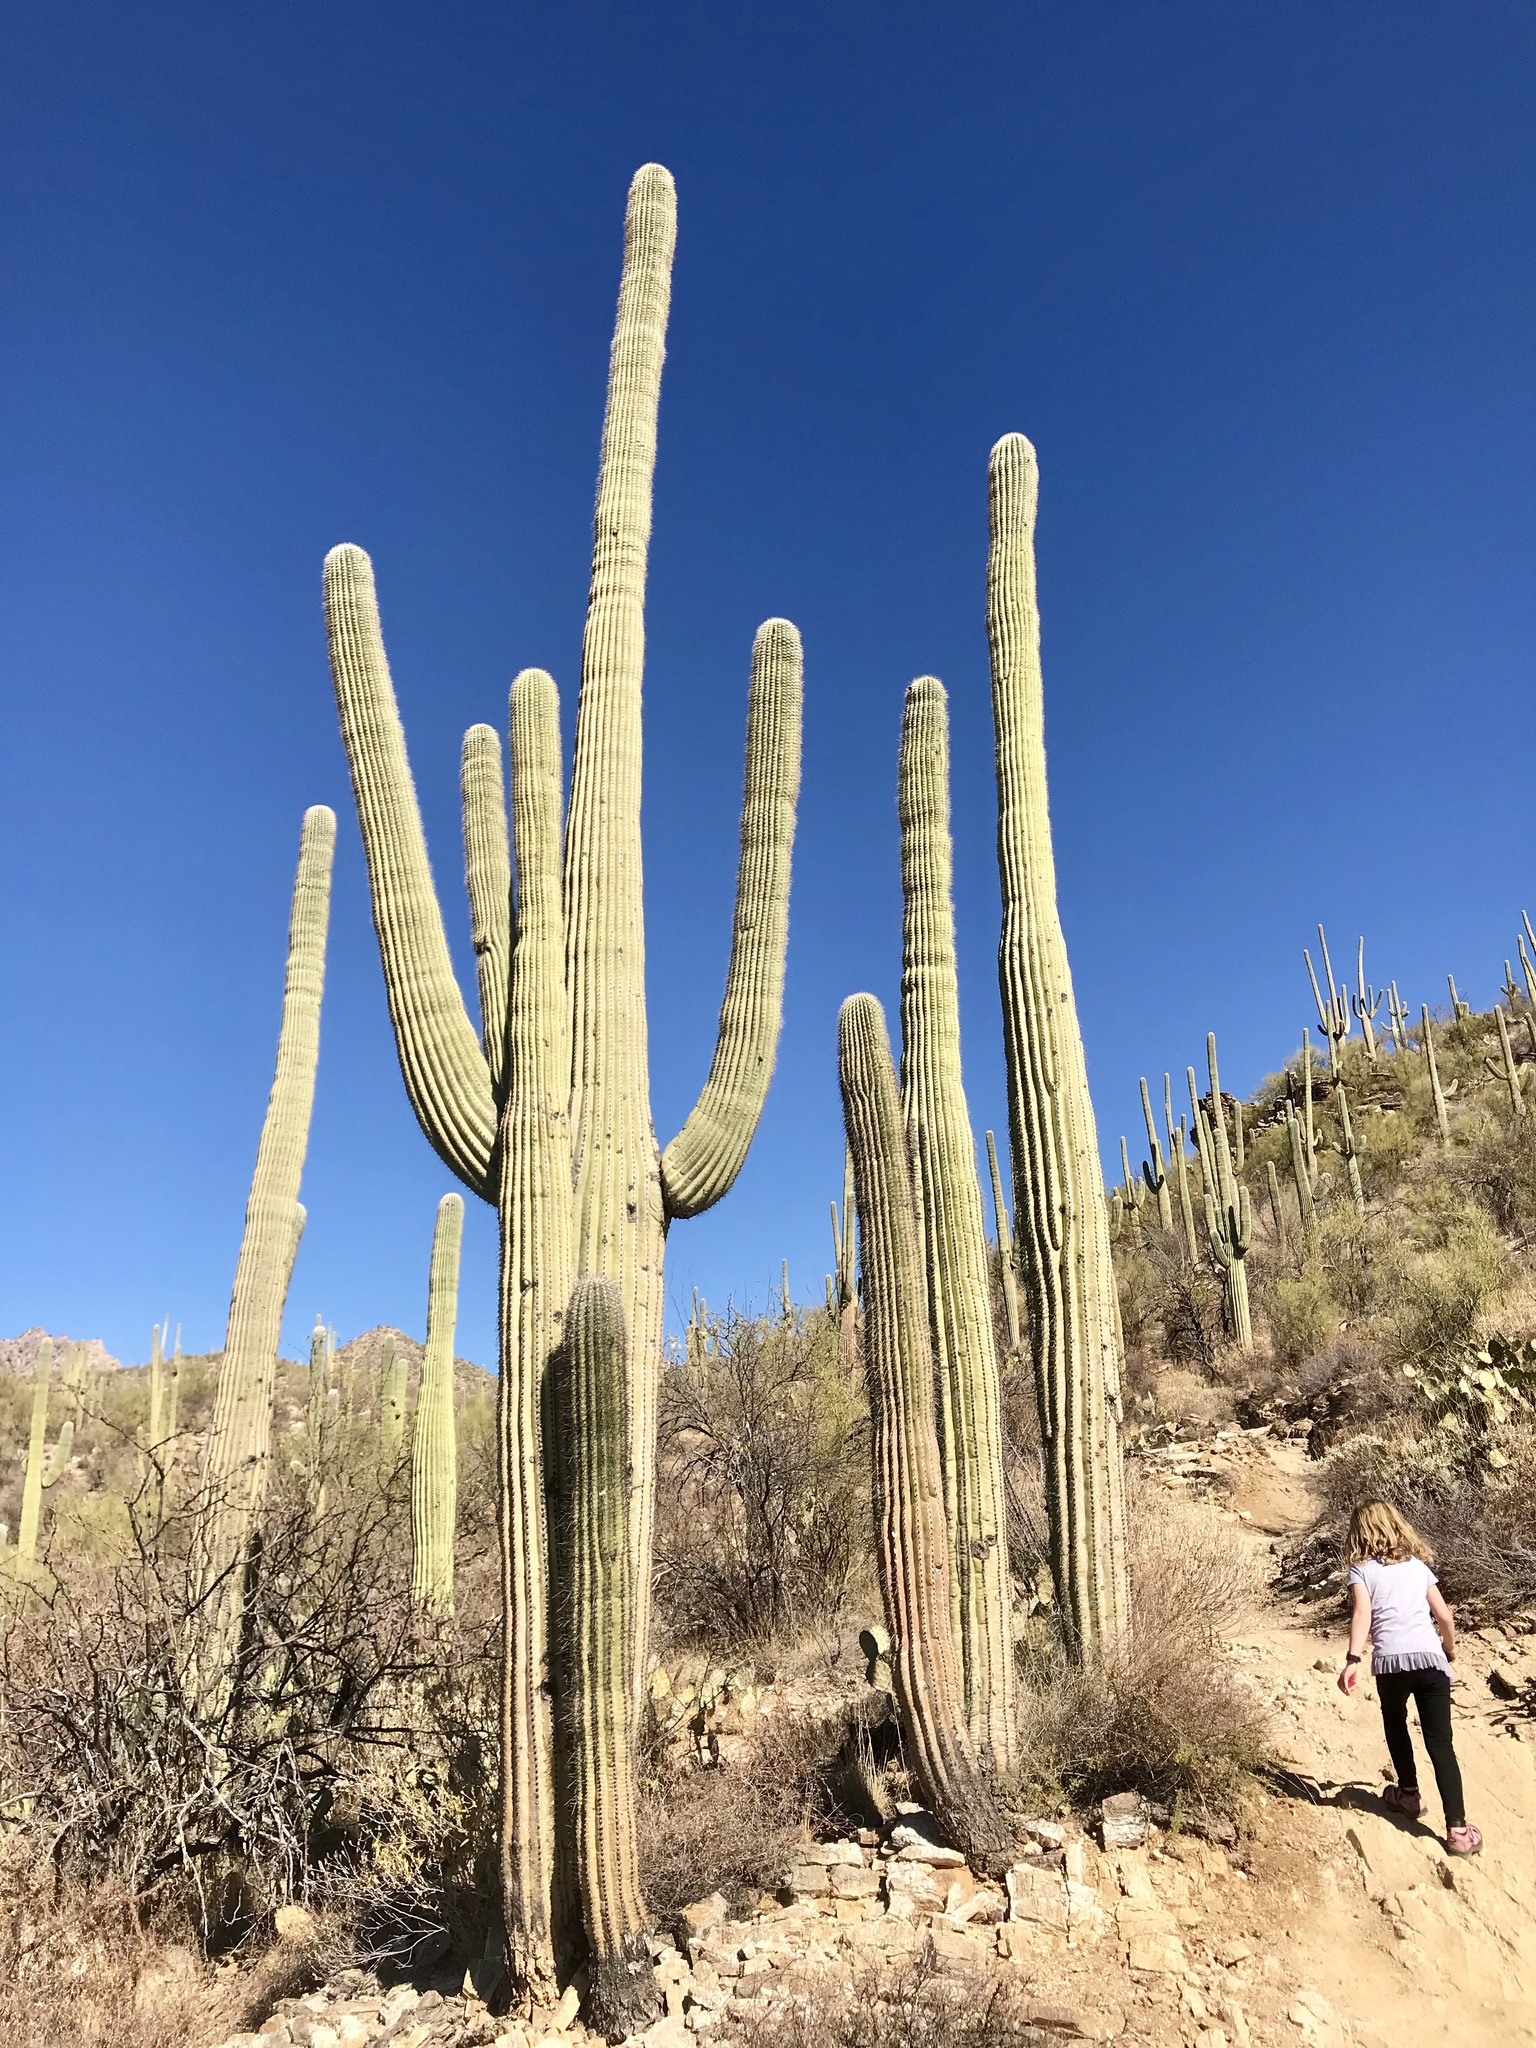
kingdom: Plantae
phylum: Tracheophyta
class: Magnoliopsida
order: Caryophyllales
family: Cactaceae
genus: Carnegiea
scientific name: Carnegiea gigantea
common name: Saguaro
